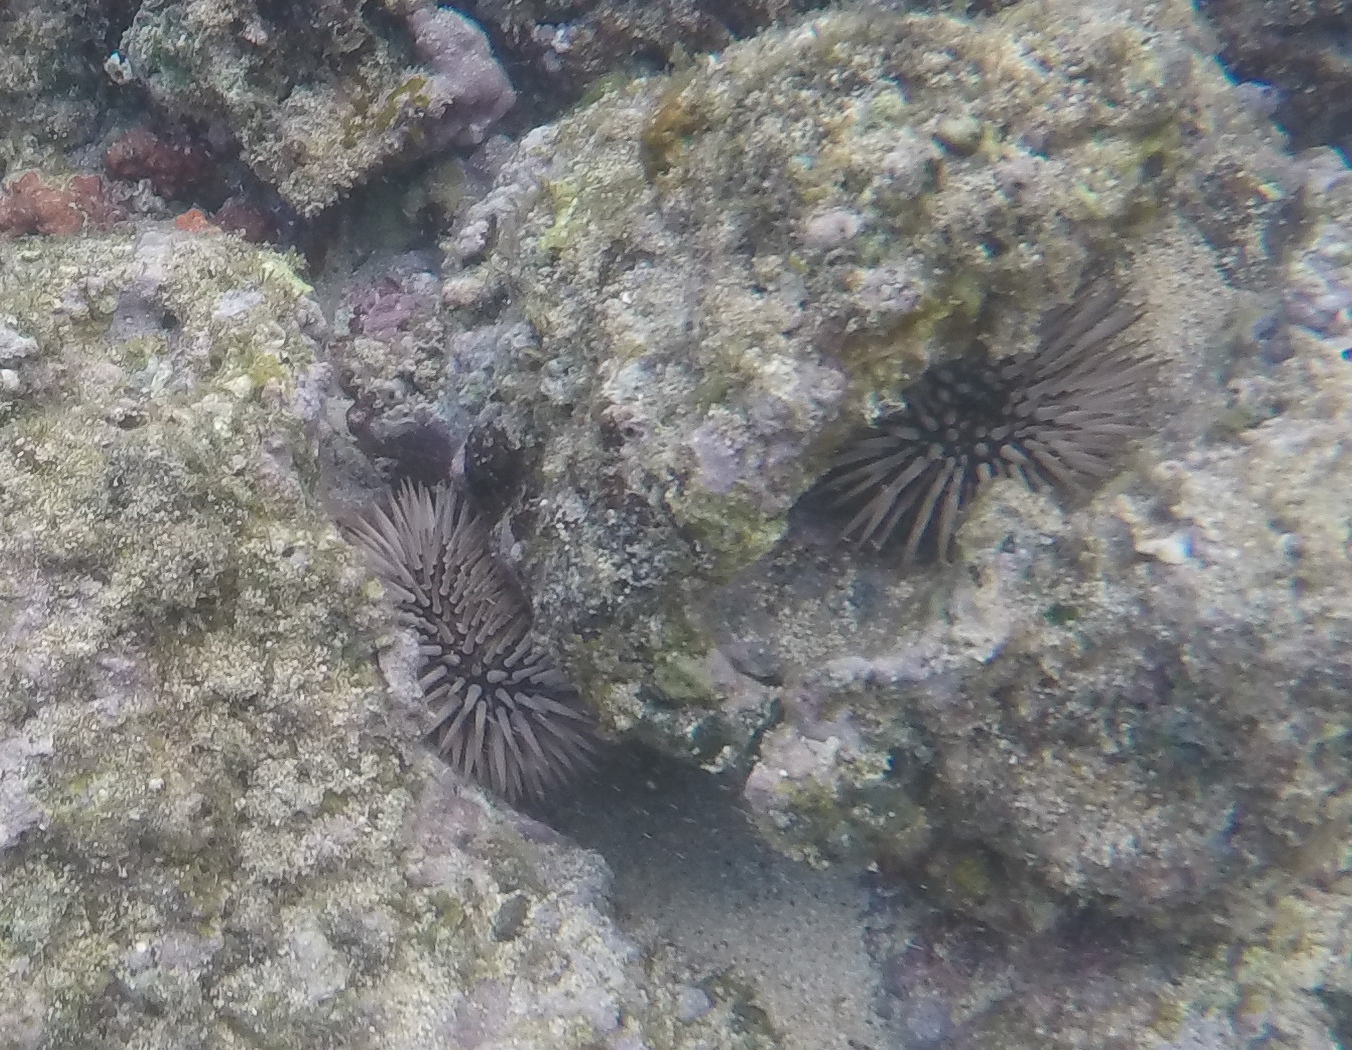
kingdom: Animalia
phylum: Echinodermata
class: Echinoidea
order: Camarodonta
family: Echinometridae
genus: Echinometra
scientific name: Echinometra mathaei
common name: Rock-boring urchin
